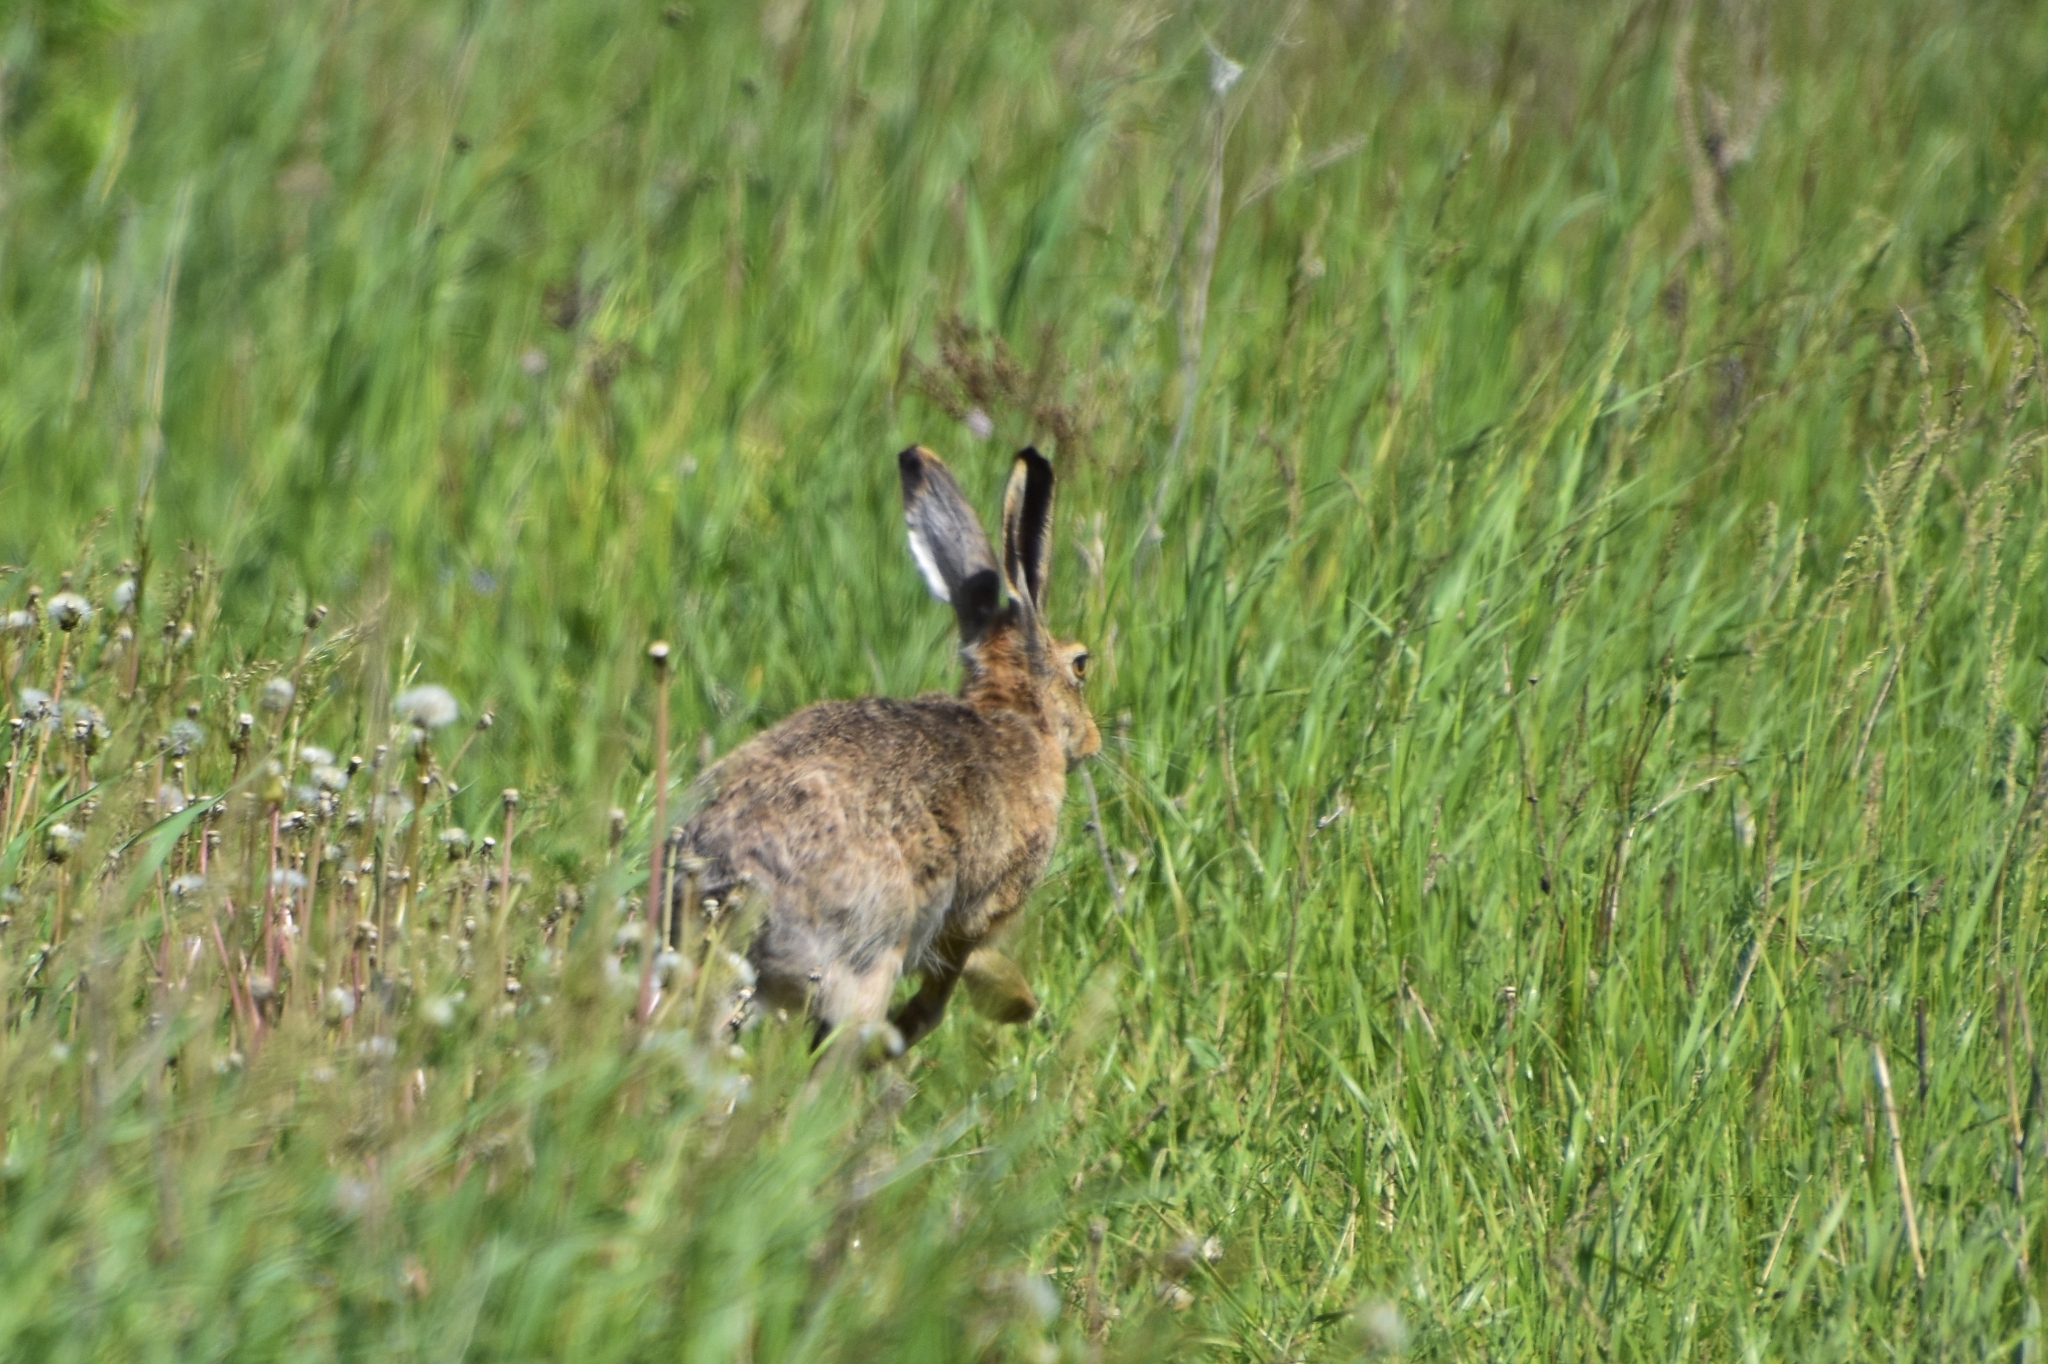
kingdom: Animalia
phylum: Chordata
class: Mammalia
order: Lagomorpha
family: Leporidae
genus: Lepus
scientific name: Lepus europaeus
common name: European hare
